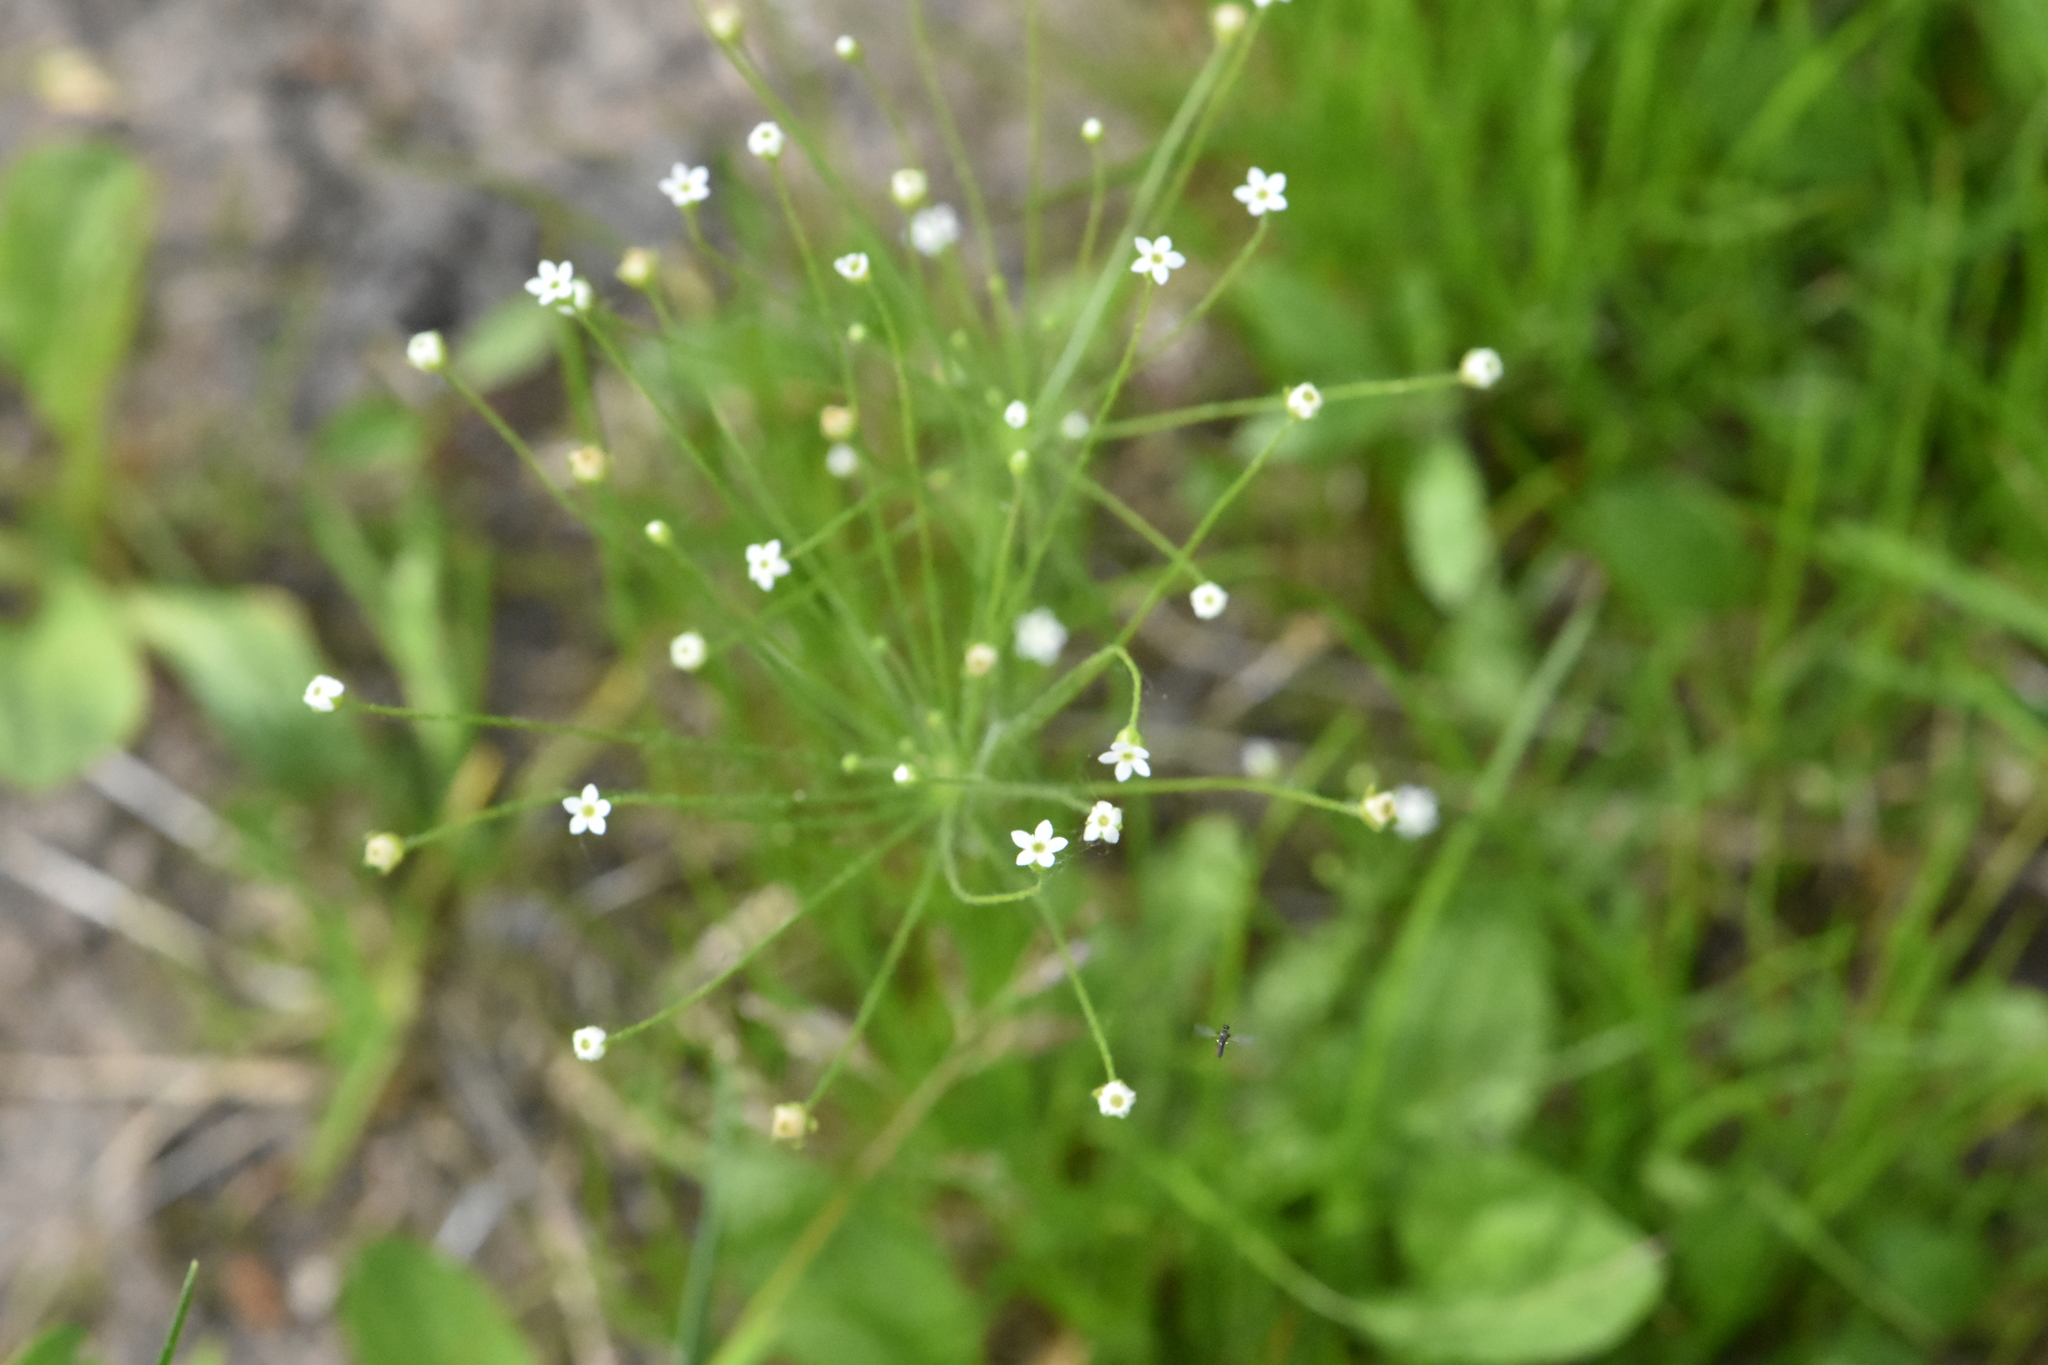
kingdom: Plantae
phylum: Tracheophyta
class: Magnoliopsida
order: Ericales
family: Primulaceae
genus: Androsace
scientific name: Androsace filiformis
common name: Filiform rock jasmine
